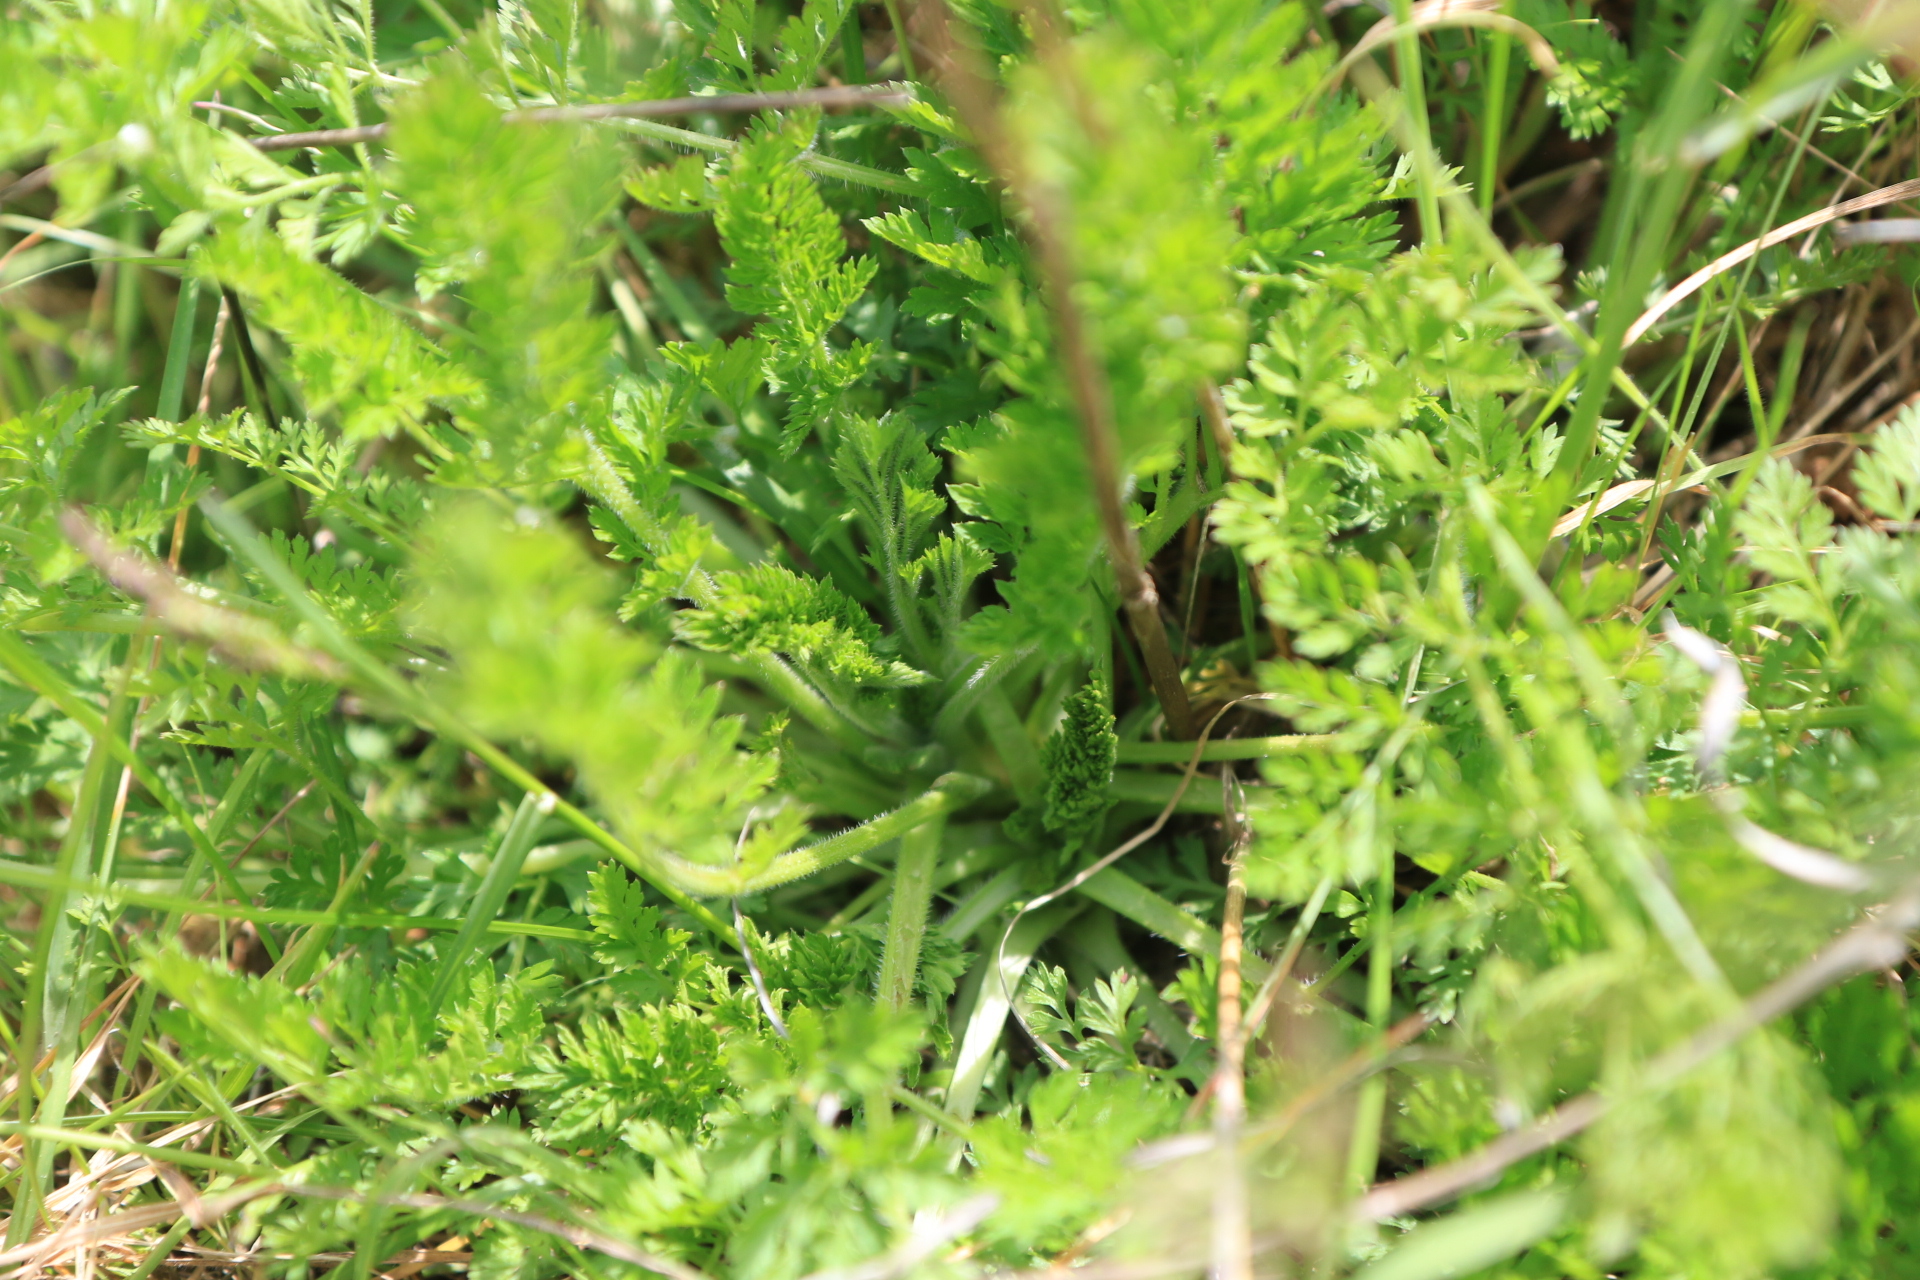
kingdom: Plantae
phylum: Tracheophyta
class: Magnoliopsida
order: Apiales
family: Apiaceae
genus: Daucus
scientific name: Daucus carota
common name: Wild carrot
